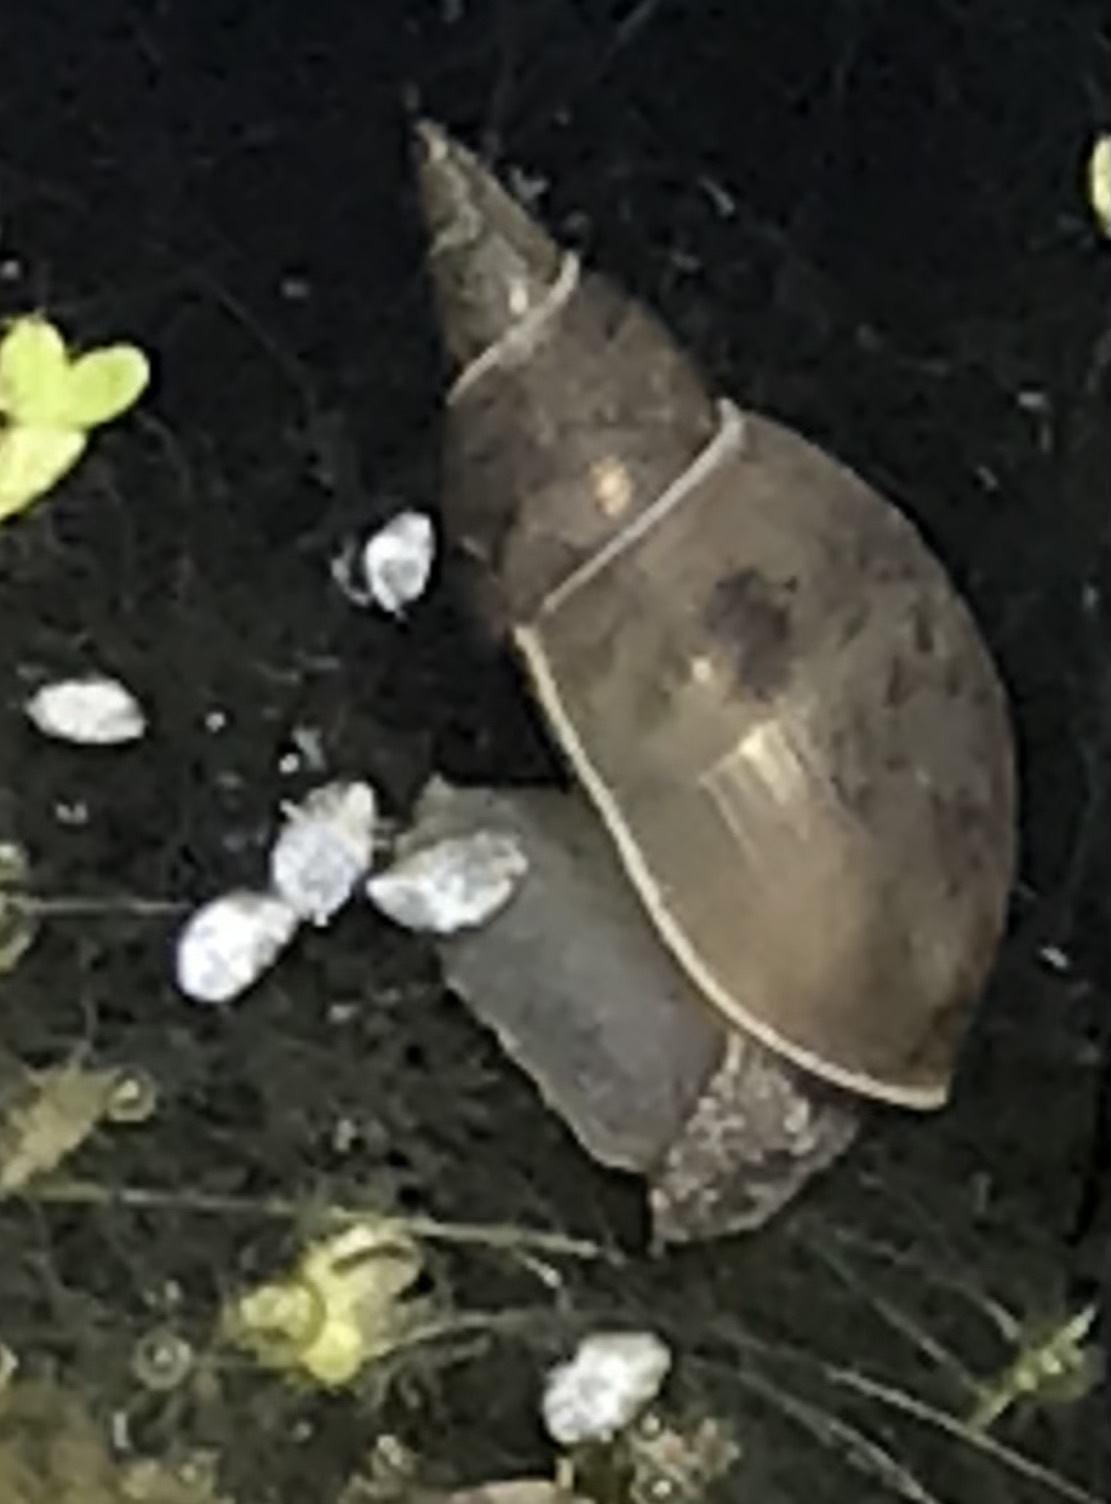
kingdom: Animalia
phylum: Mollusca
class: Gastropoda
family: Lymnaeidae
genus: Lymnaea
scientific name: Lymnaea stagnalis
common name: Great pond snail
